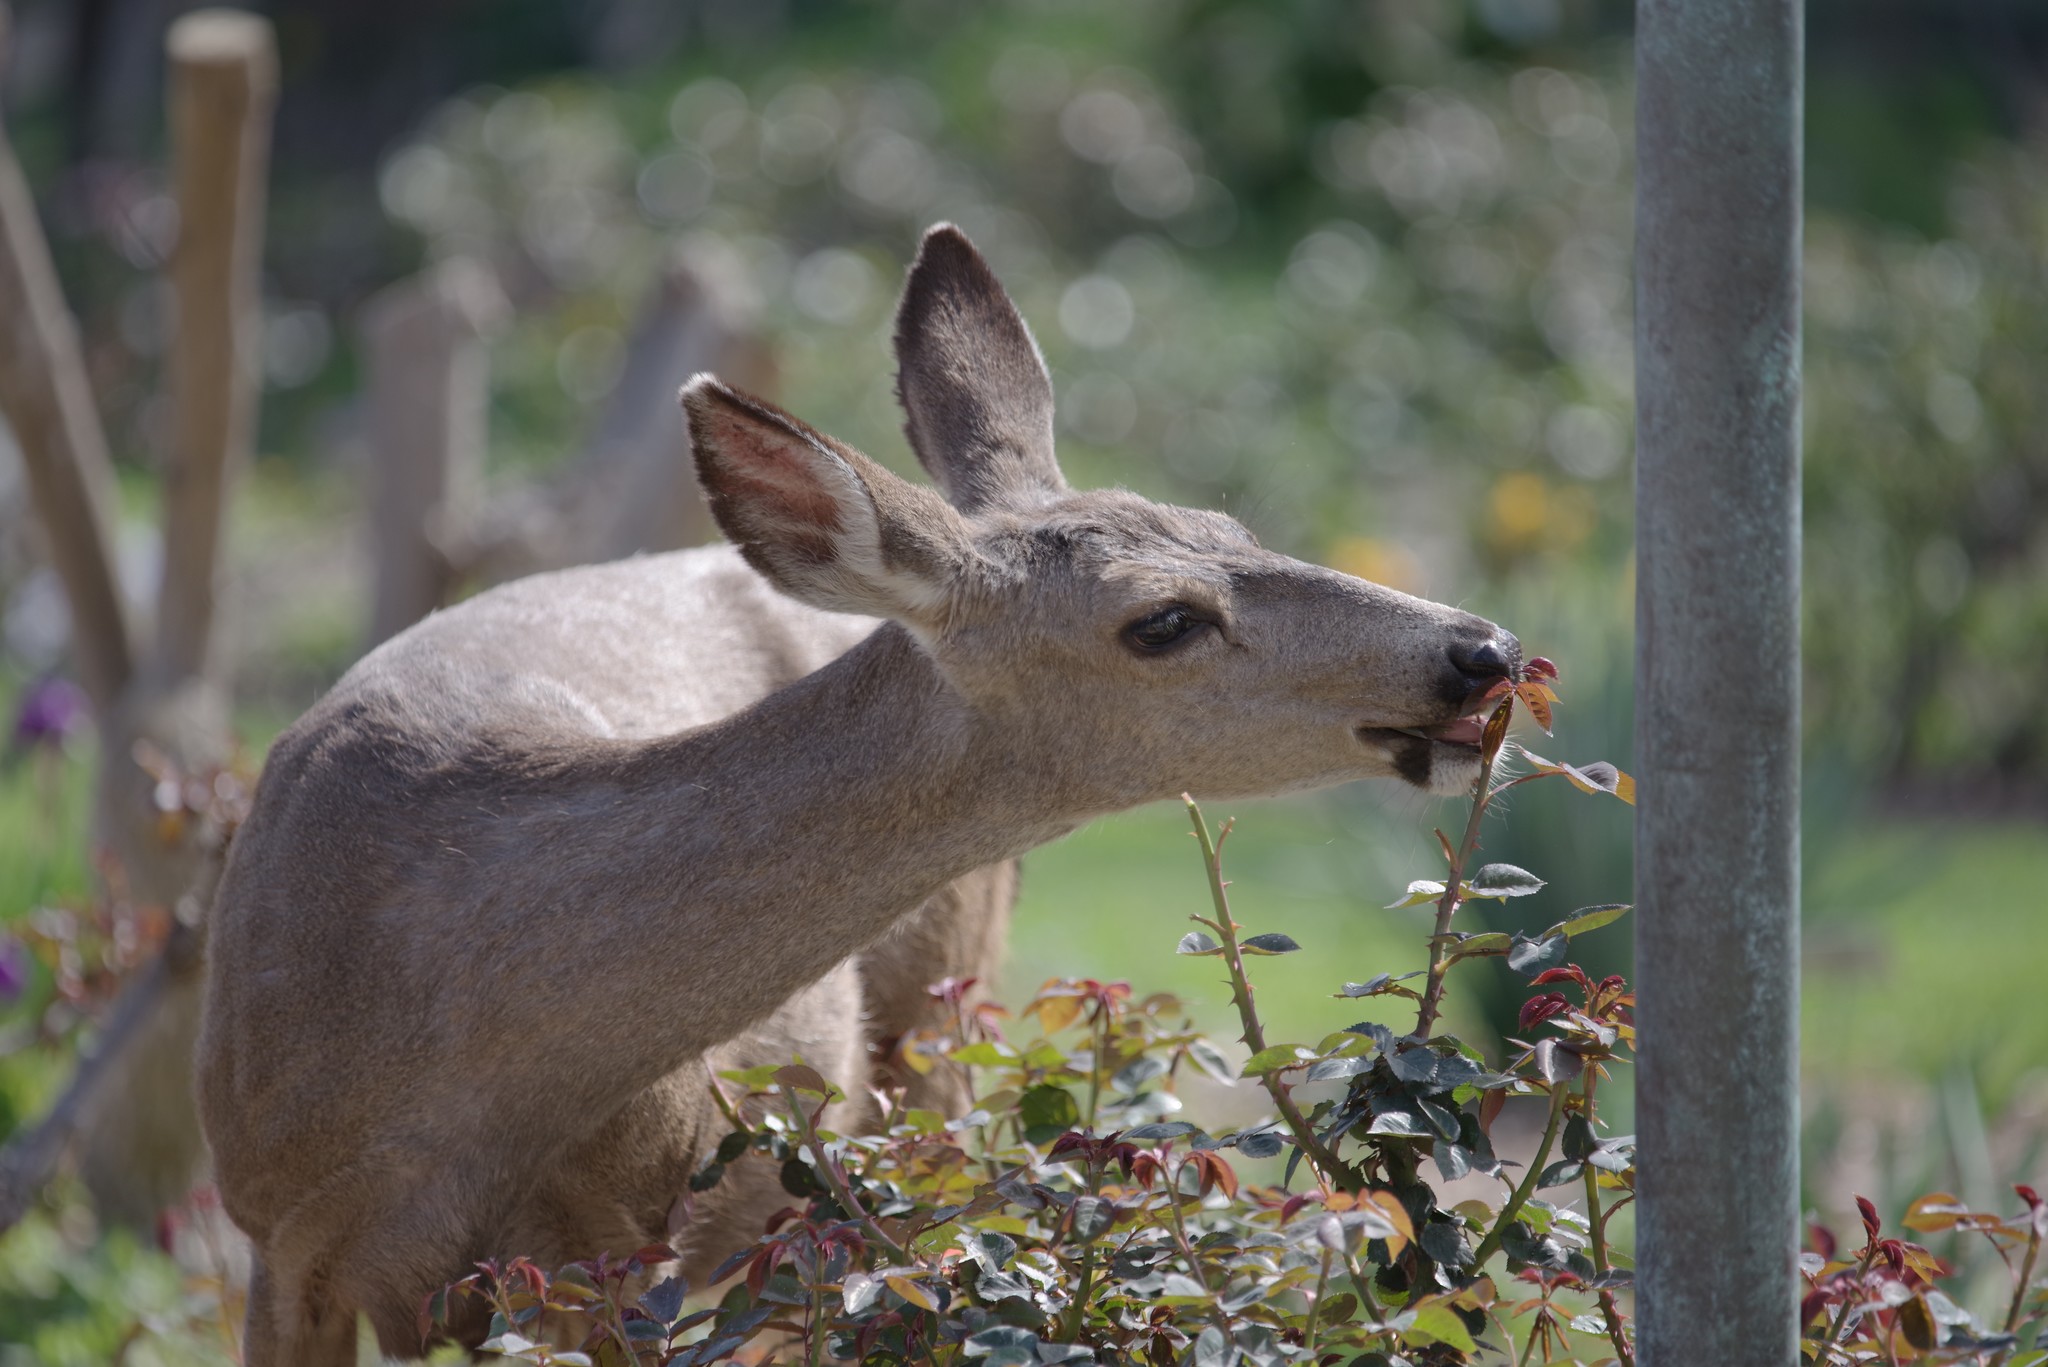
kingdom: Animalia
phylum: Chordata
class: Mammalia
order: Artiodactyla
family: Cervidae
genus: Odocoileus
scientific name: Odocoileus hemionus
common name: Mule deer
